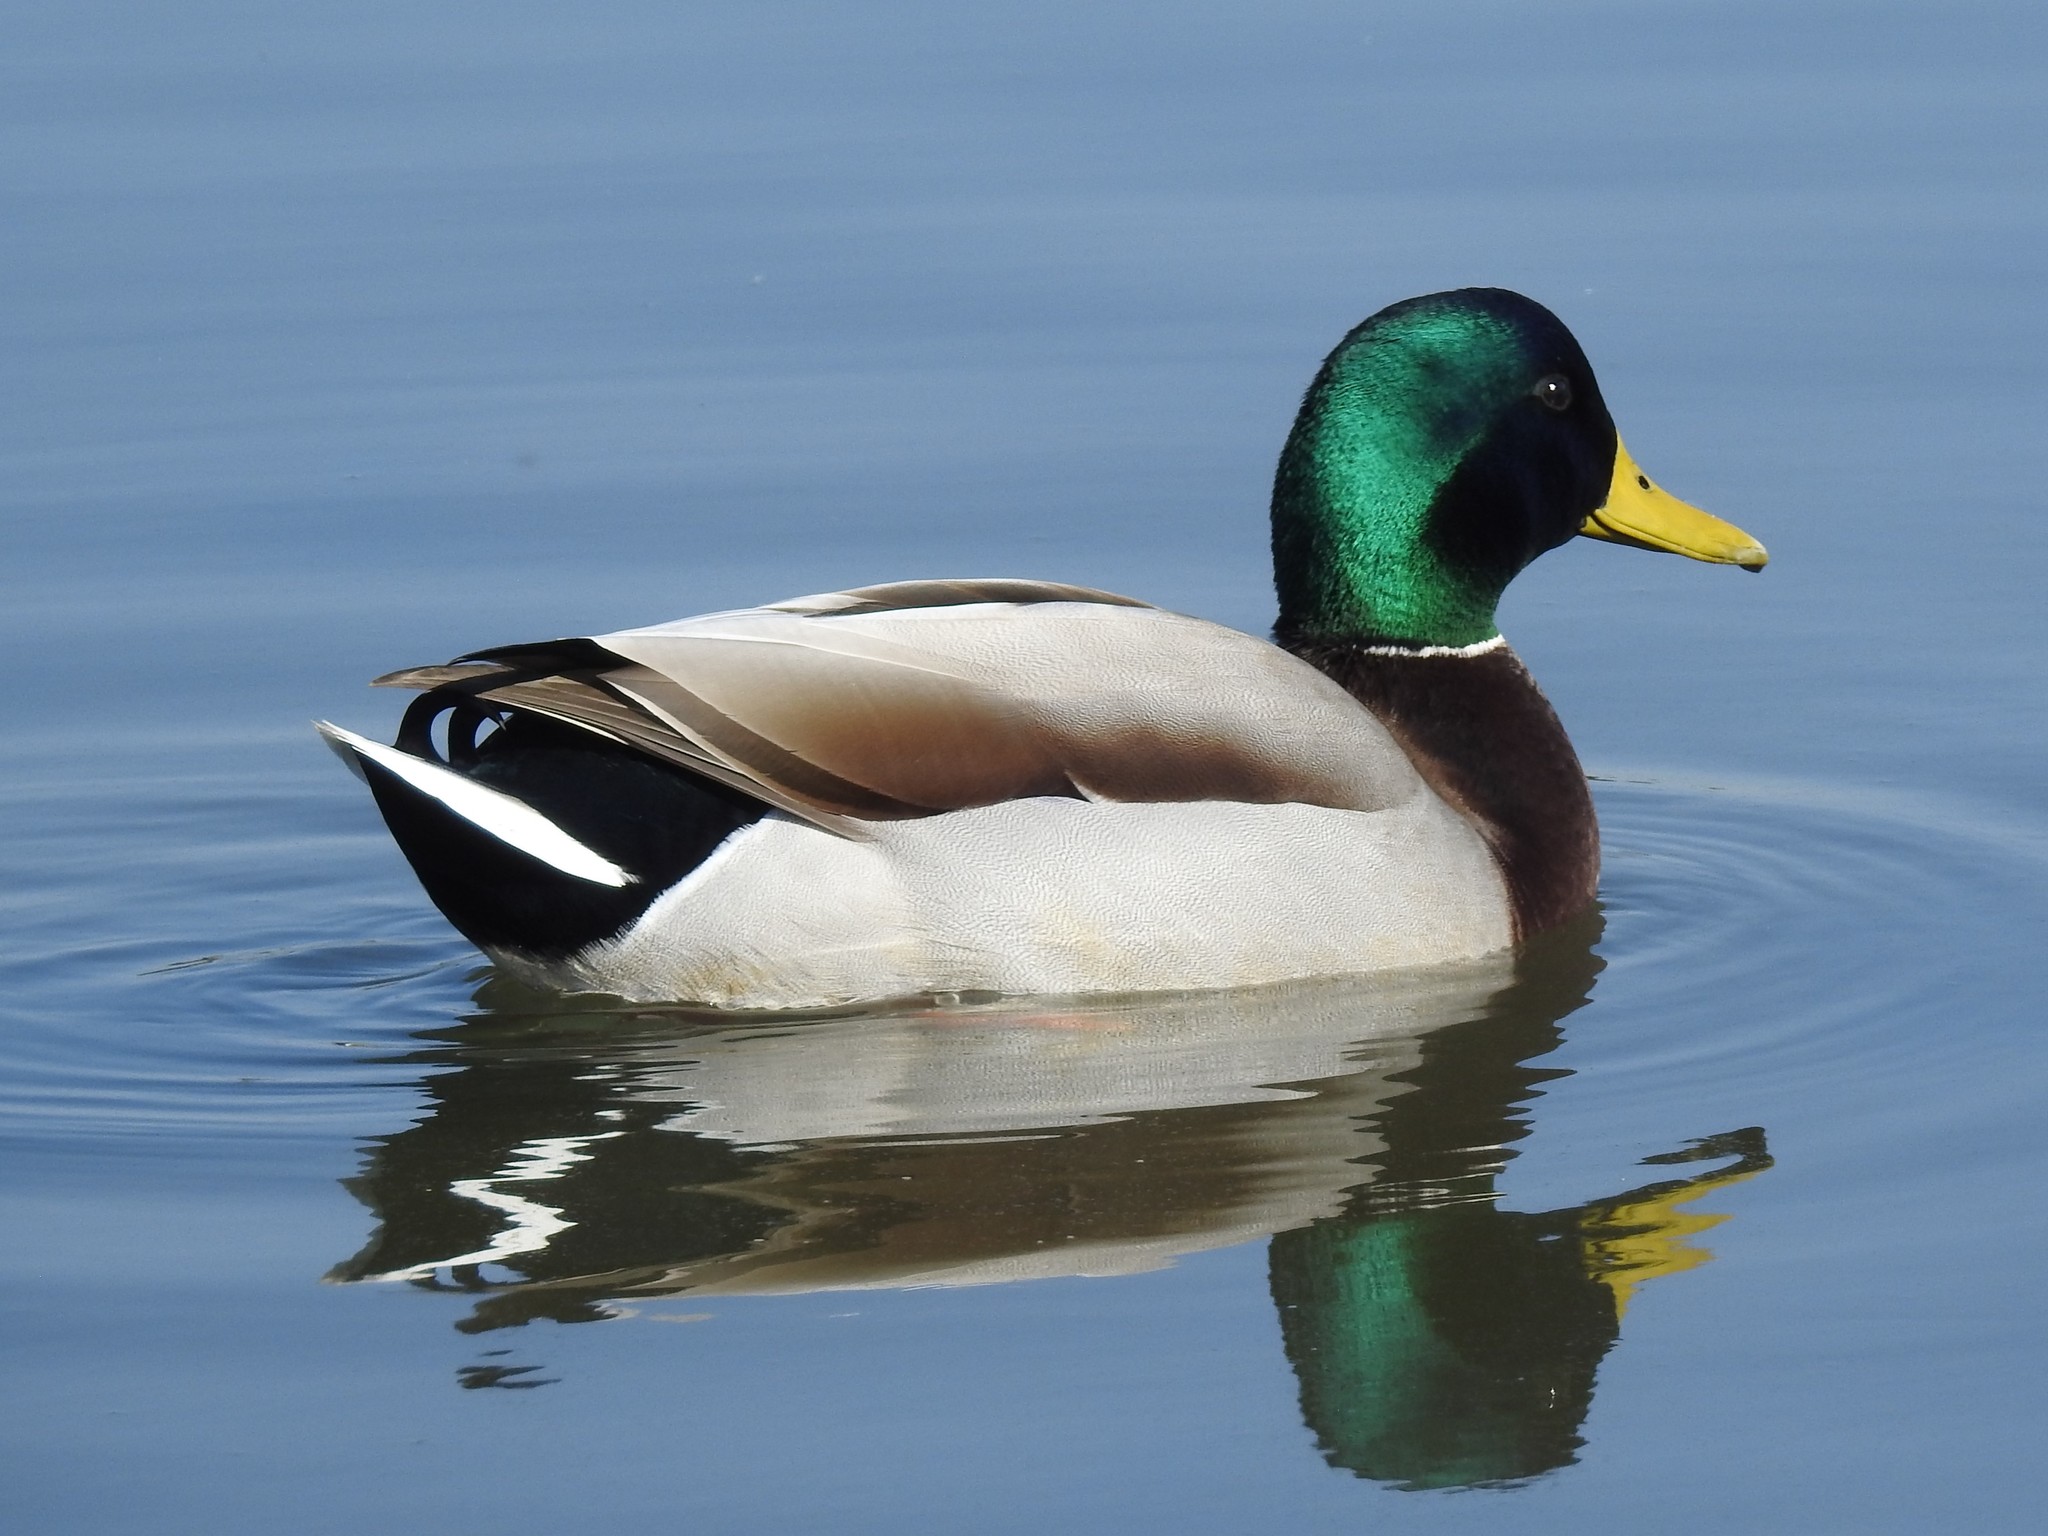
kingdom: Animalia
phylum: Chordata
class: Aves
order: Anseriformes
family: Anatidae
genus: Anas
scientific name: Anas platyrhynchos
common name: Mallard
